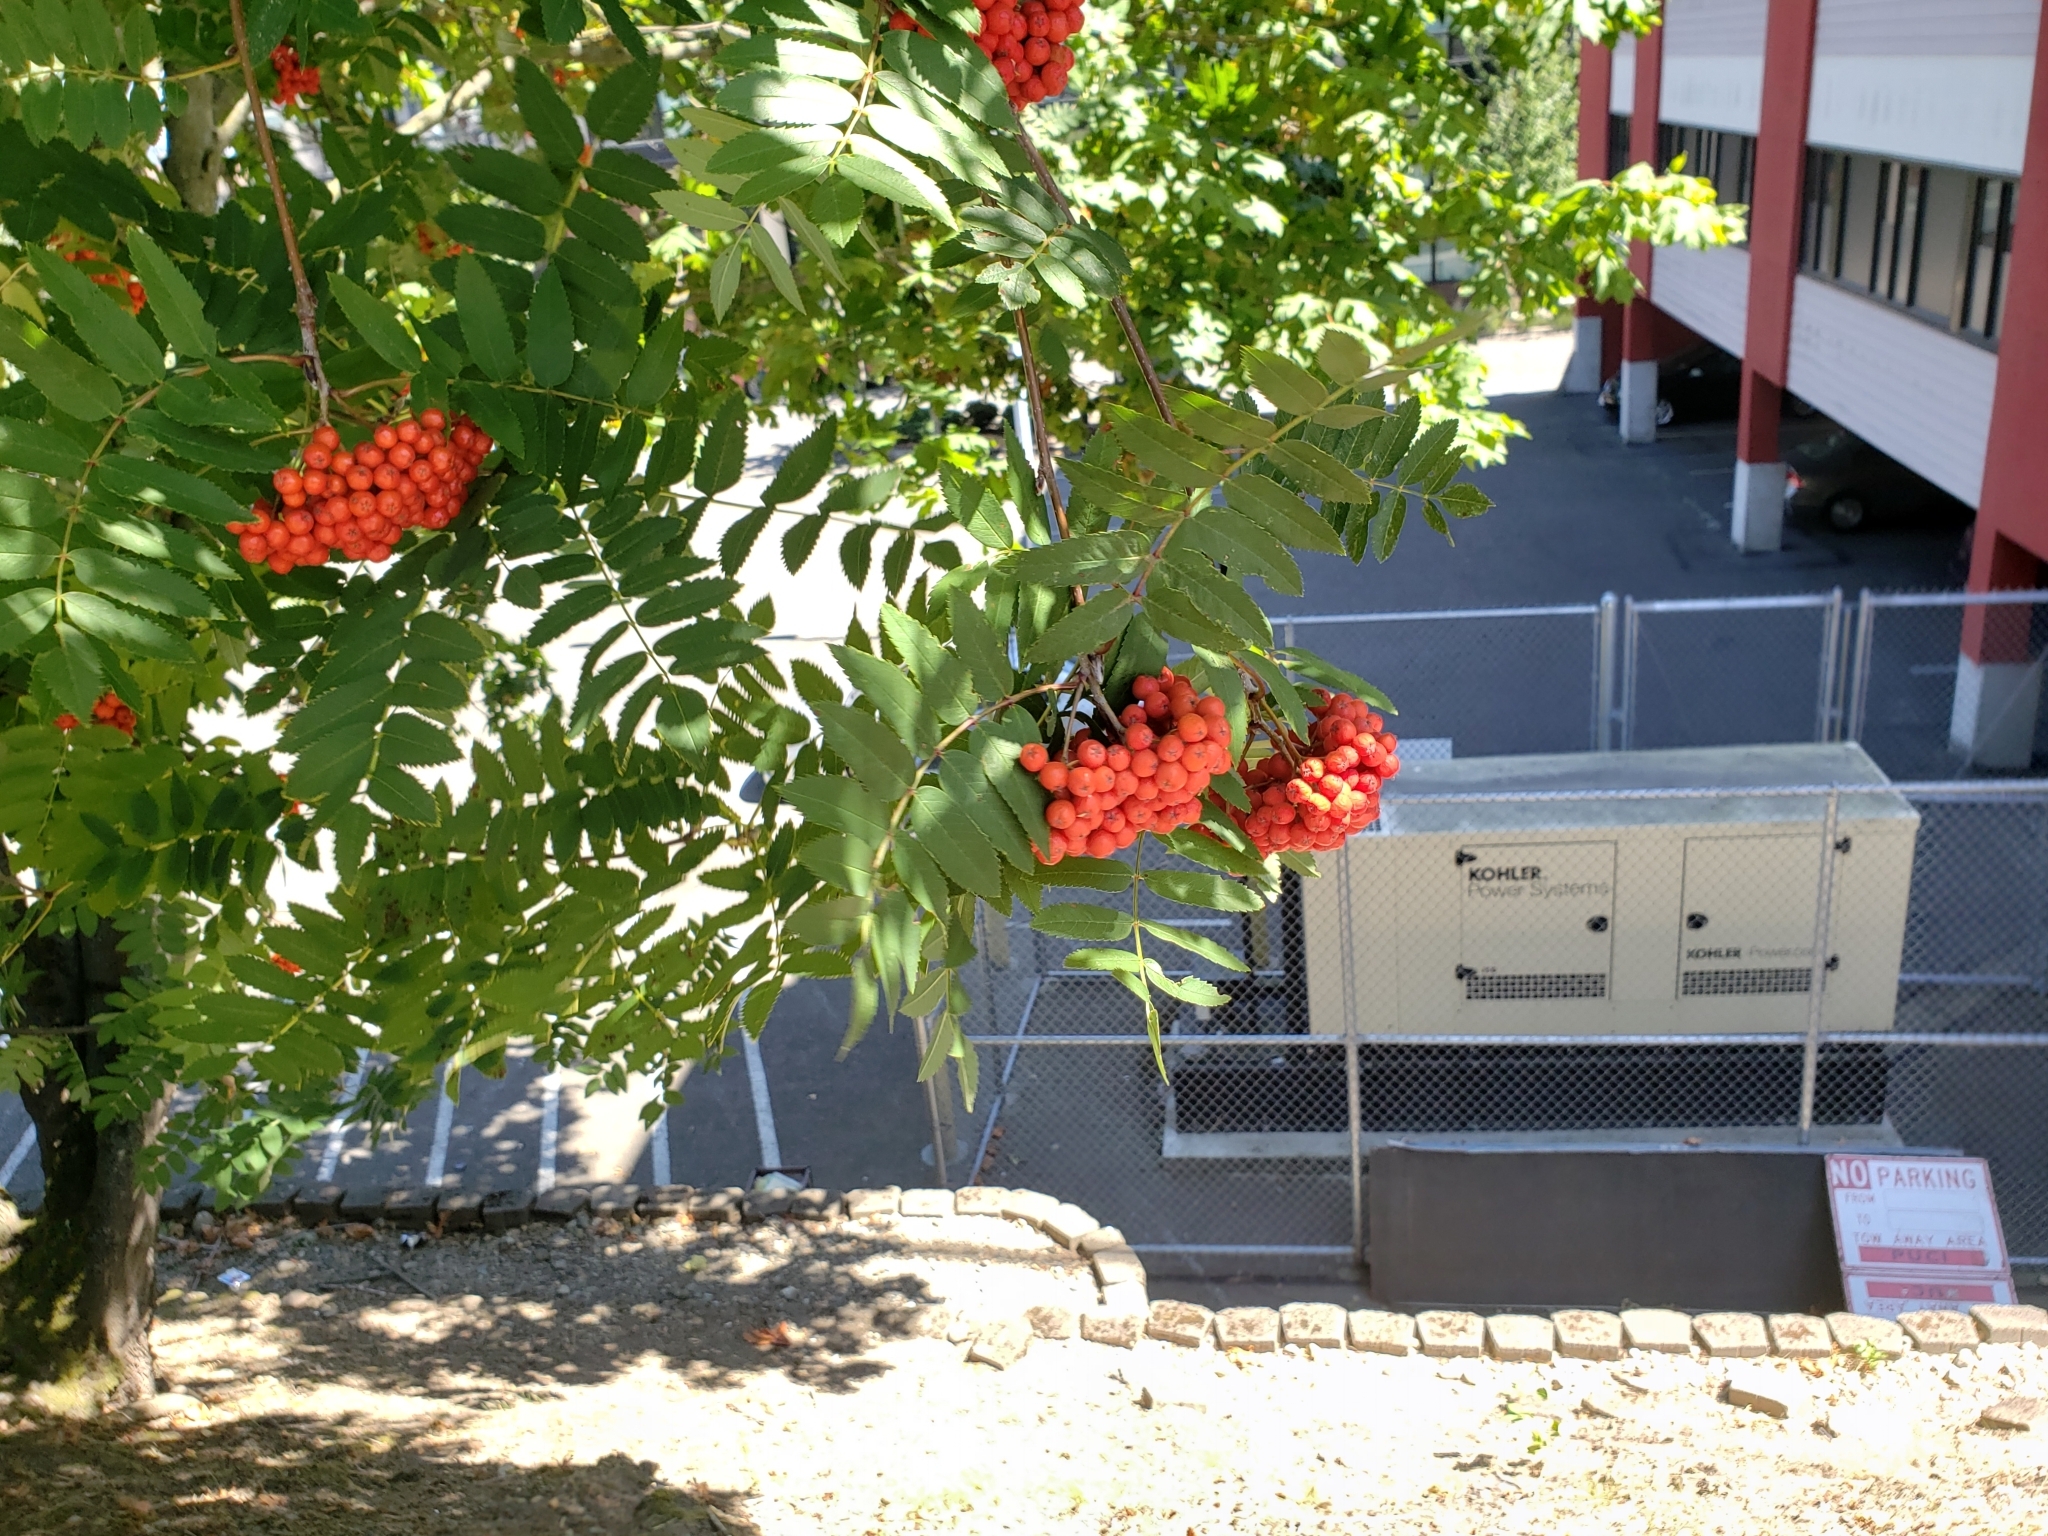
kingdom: Plantae
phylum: Tracheophyta
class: Magnoliopsida
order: Rosales
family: Rosaceae
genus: Sorbus
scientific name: Sorbus aucuparia
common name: Rowan
